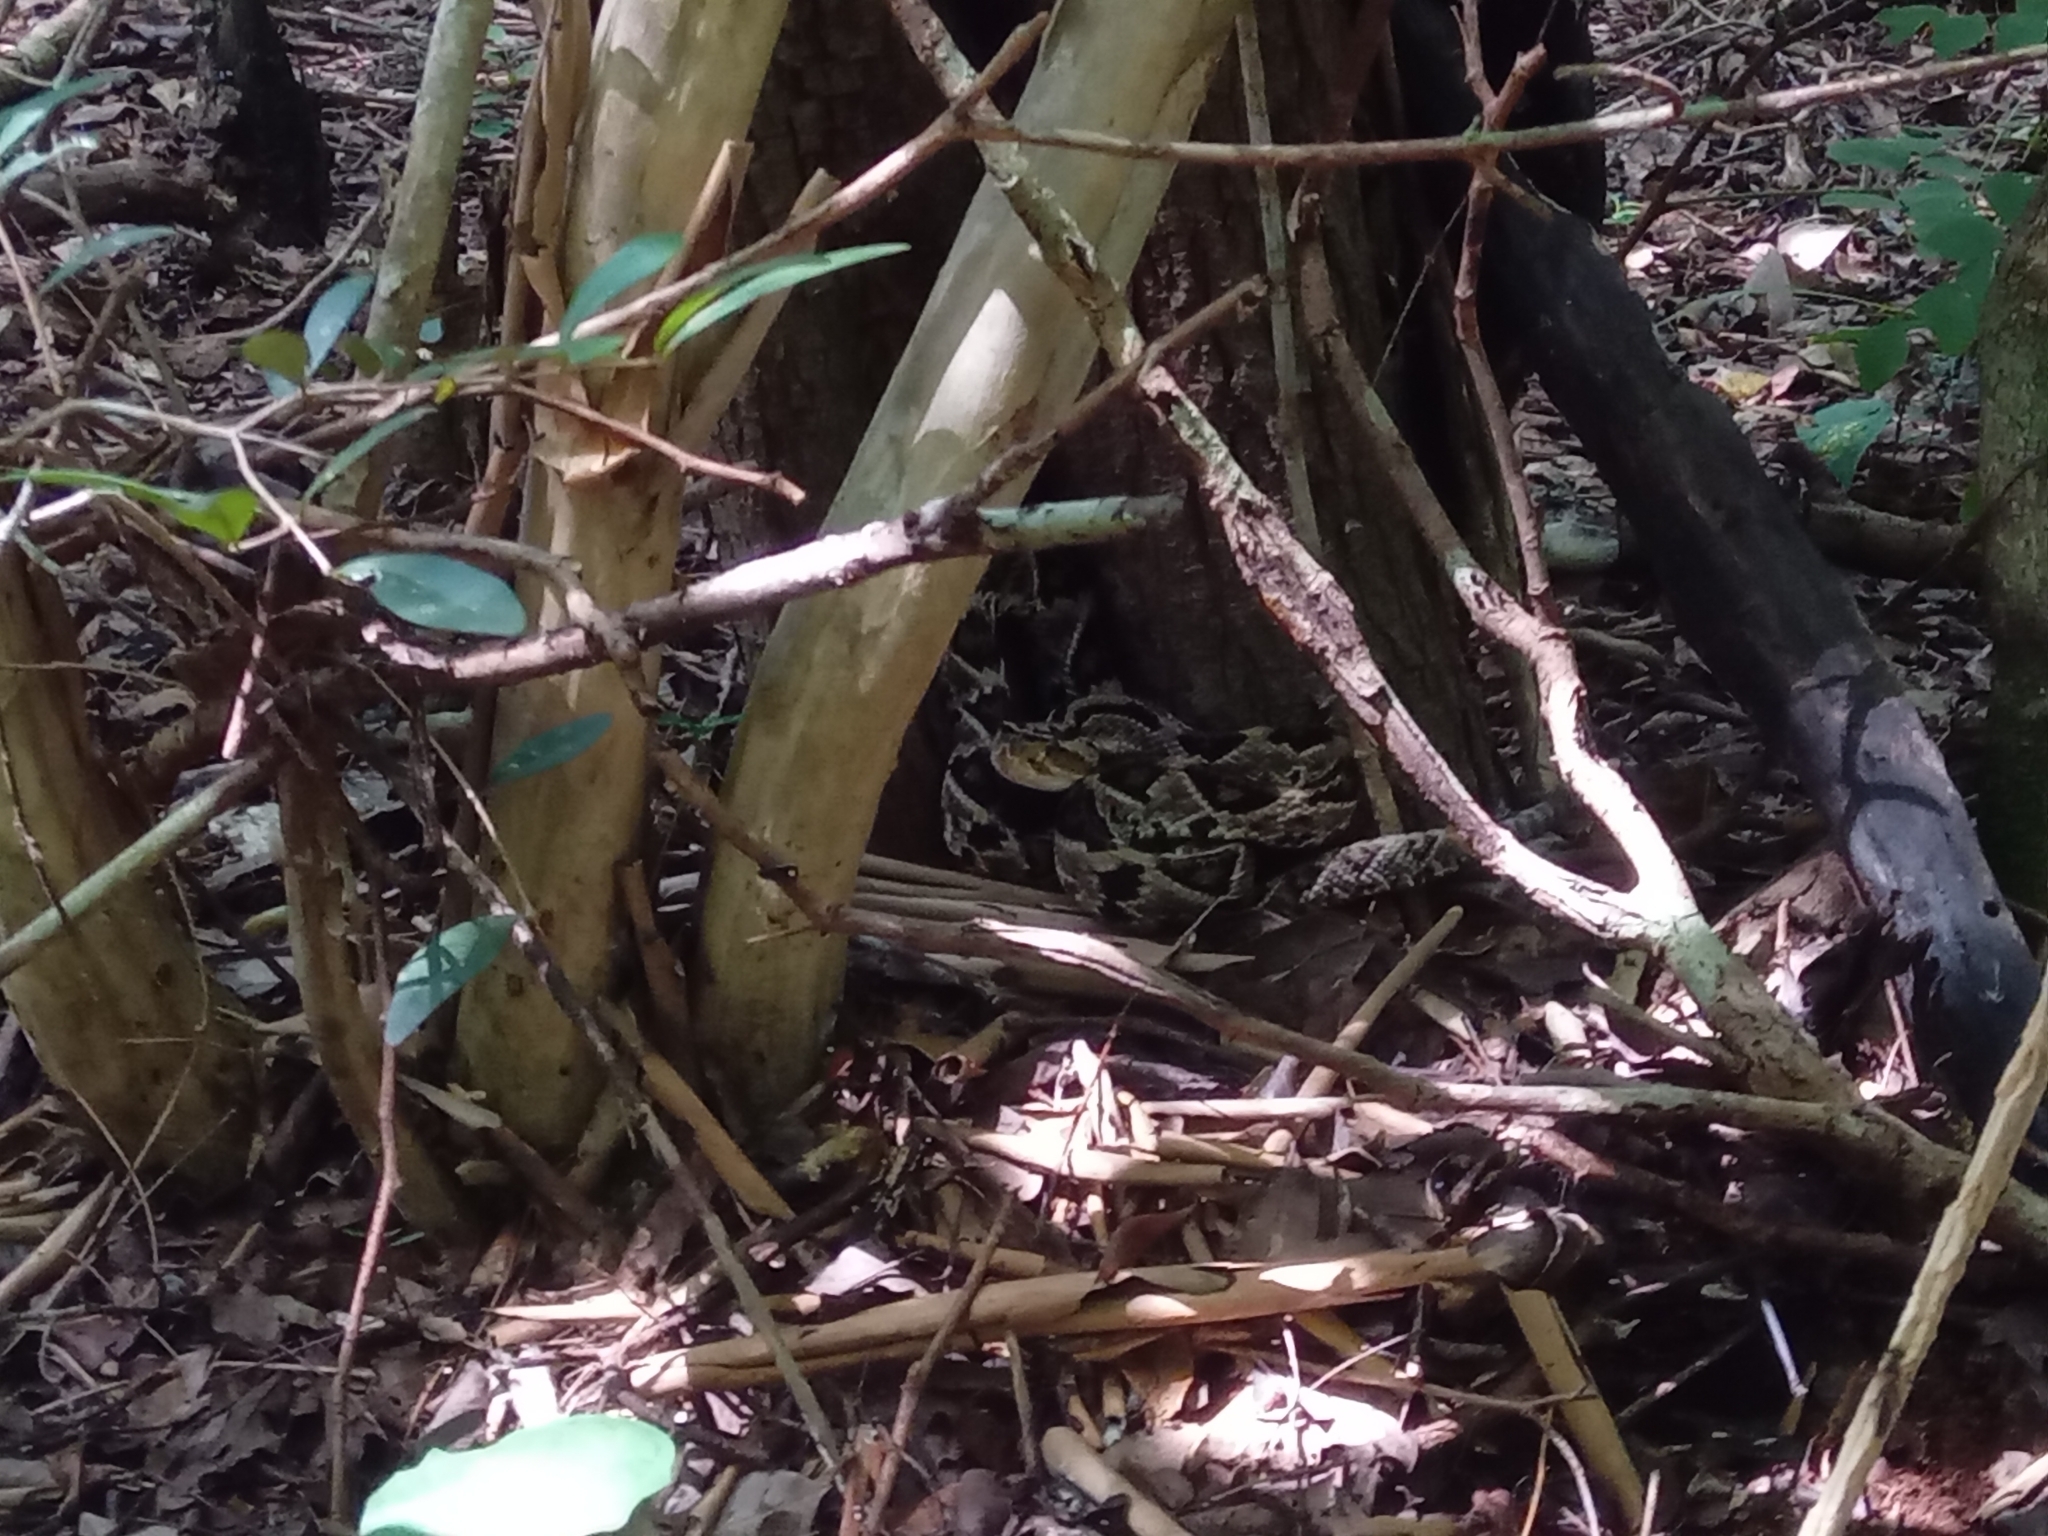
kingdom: Animalia
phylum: Chordata
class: Squamata
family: Viperidae
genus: Crotalus
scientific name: Crotalus tzabcan
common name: Yucatan neotropical rattlesnake
